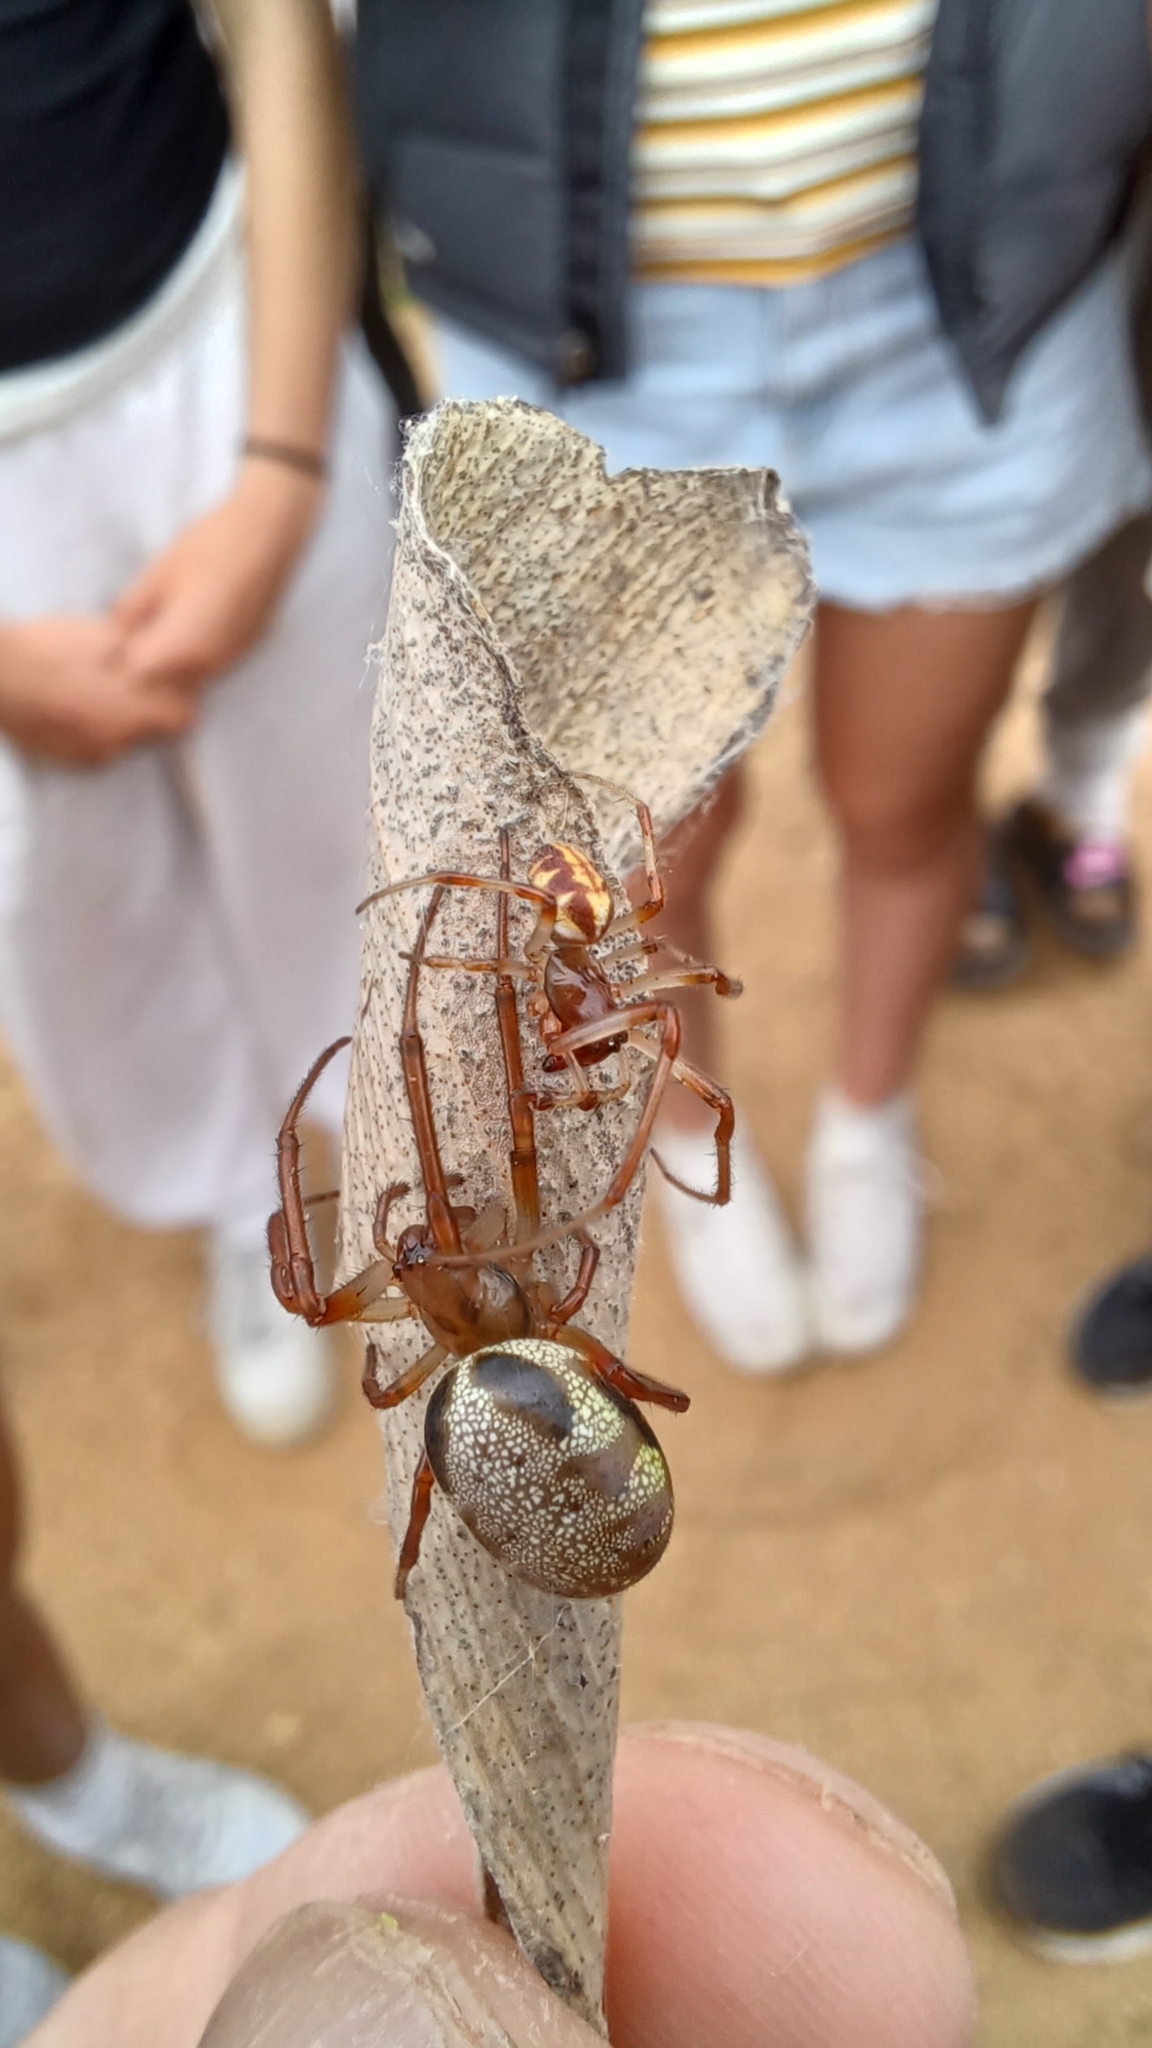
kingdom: Animalia
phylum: Arthropoda
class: Arachnida
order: Araneae
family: Araneidae
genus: Phonognatha
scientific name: Phonognatha graeffei
